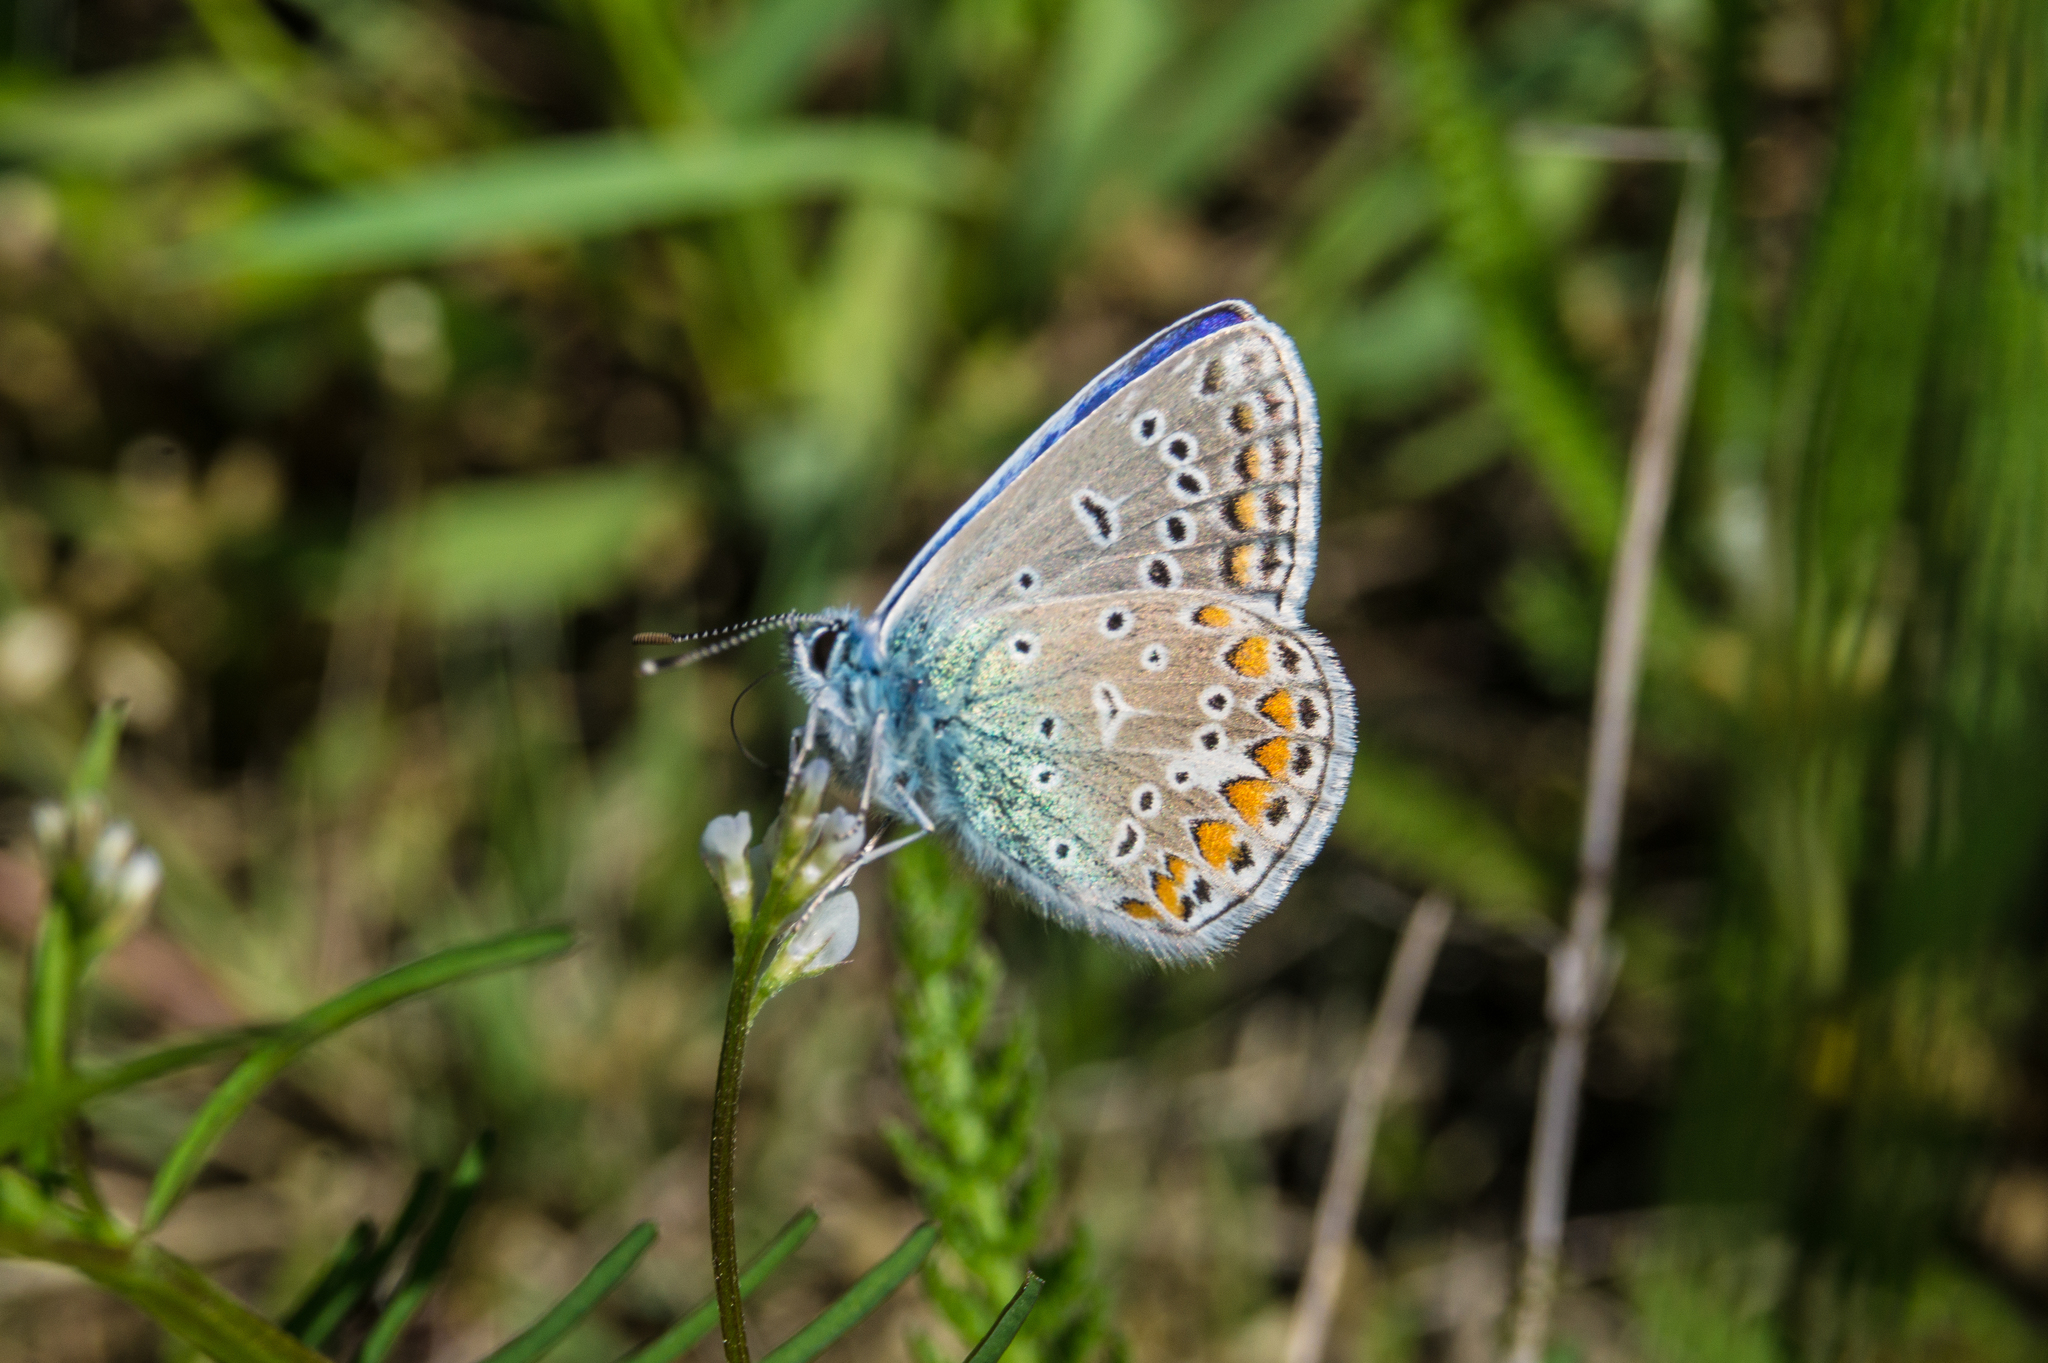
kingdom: Animalia
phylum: Arthropoda
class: Insecta
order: Lepidoptera
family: Lycaenidae
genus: Polyommatus
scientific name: Polyommatus icarus
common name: Common blue
